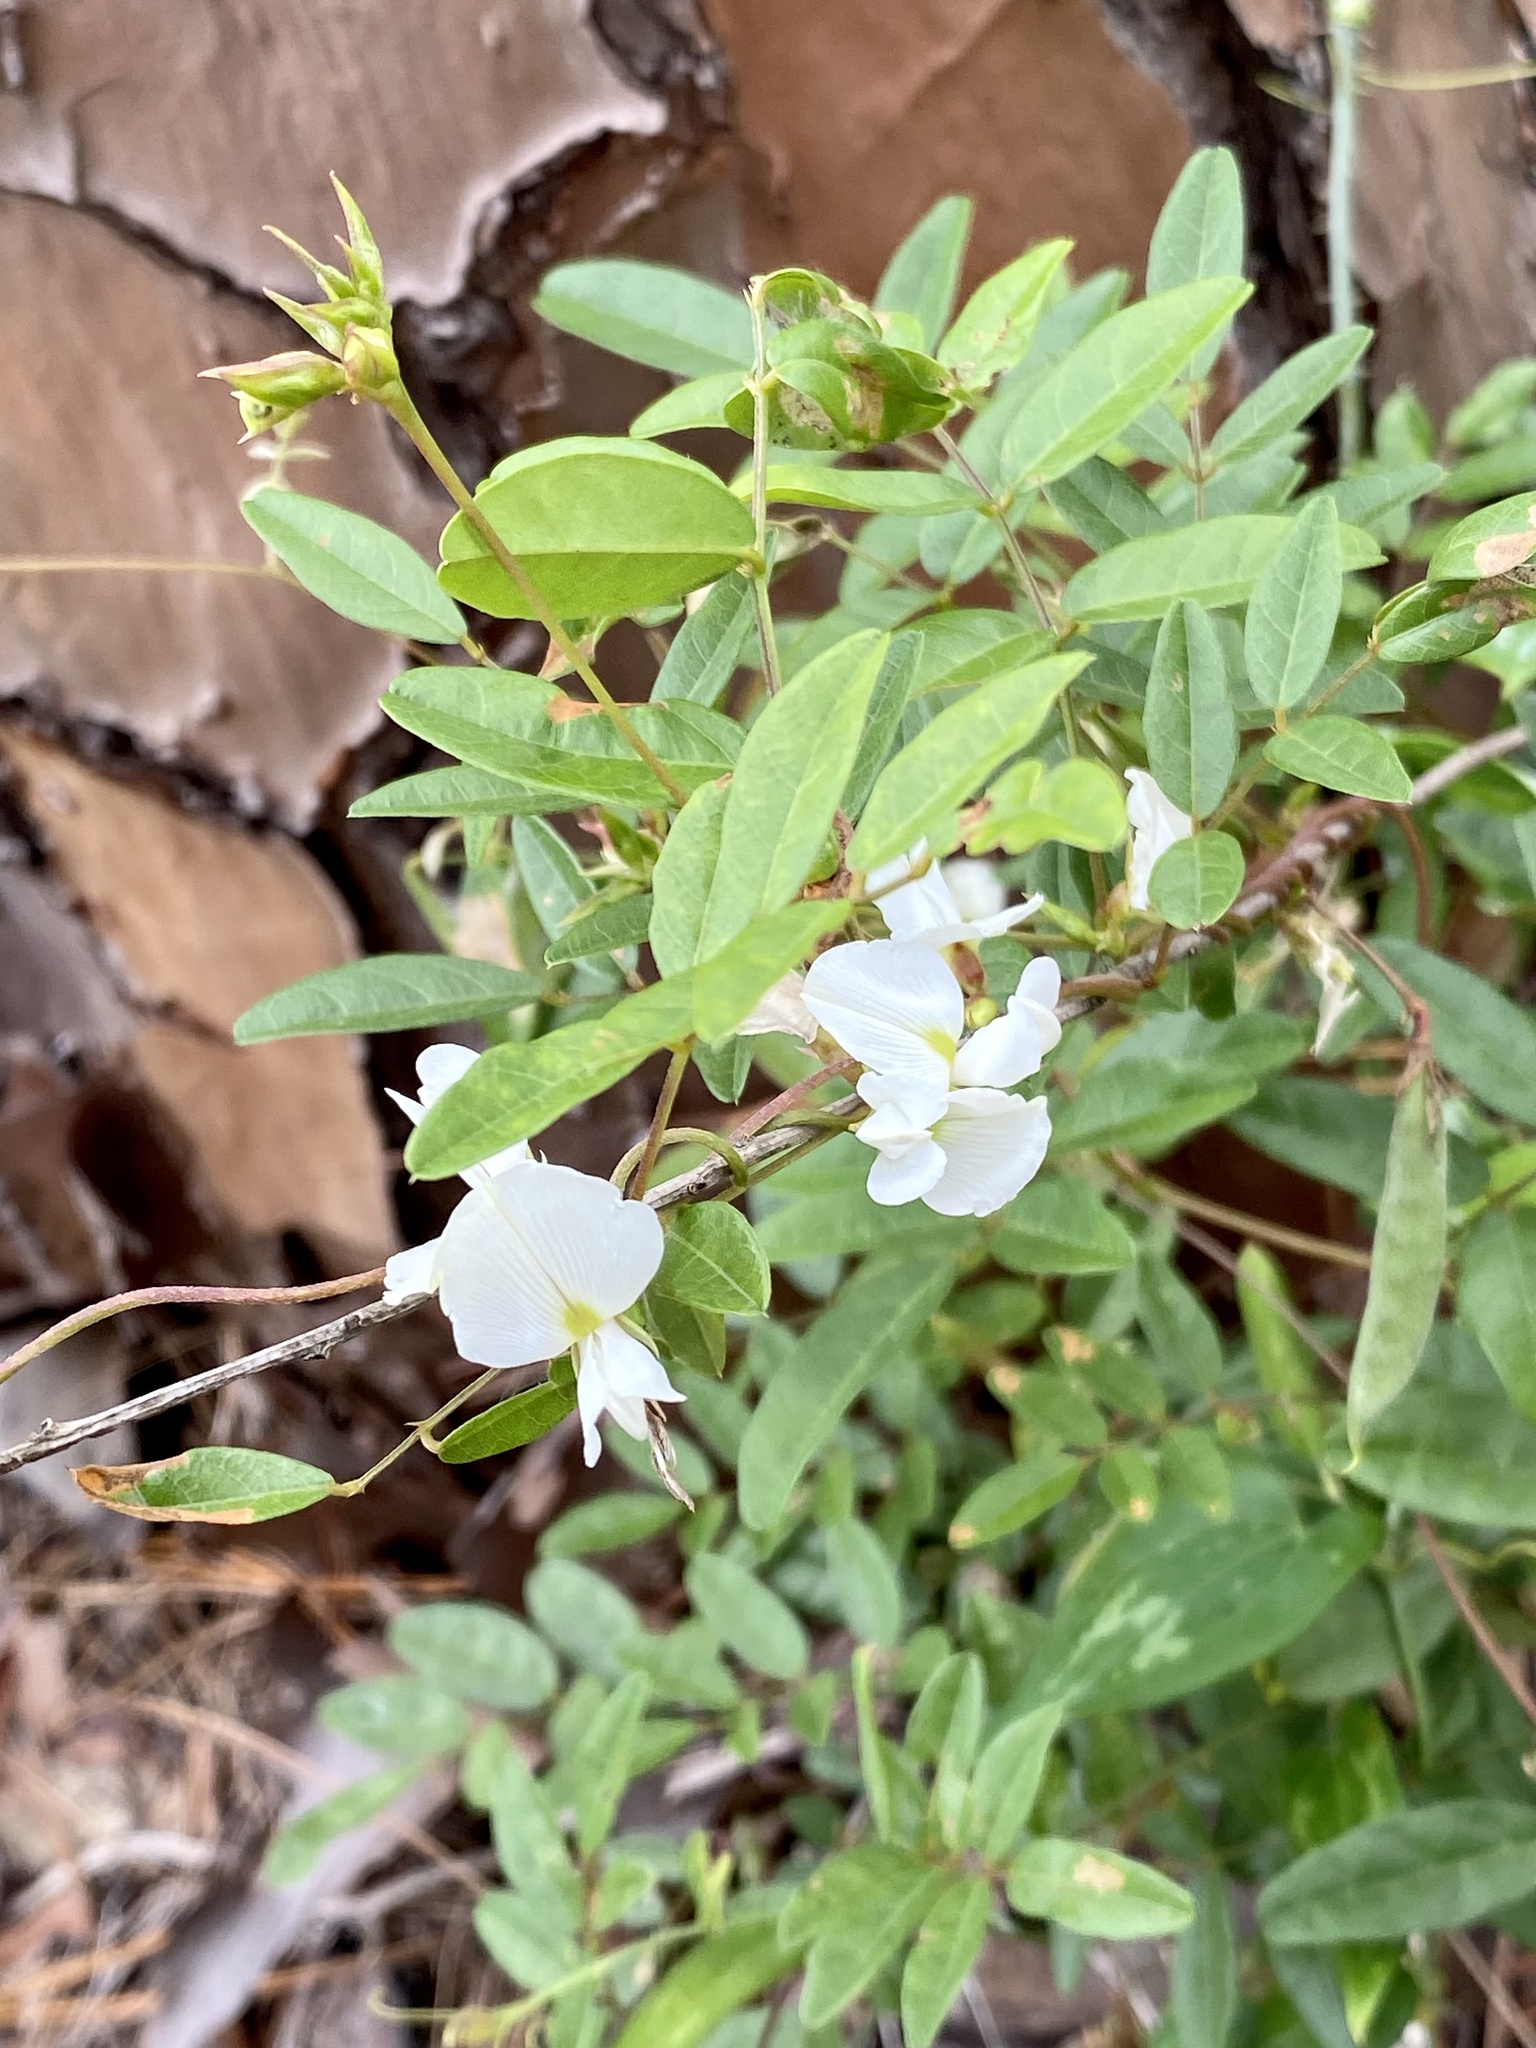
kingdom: Plantae
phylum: Tracheophyta
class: Magnoliopsida
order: Fabales
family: Fabaceae
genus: Galactia
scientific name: Galactia elliottii
